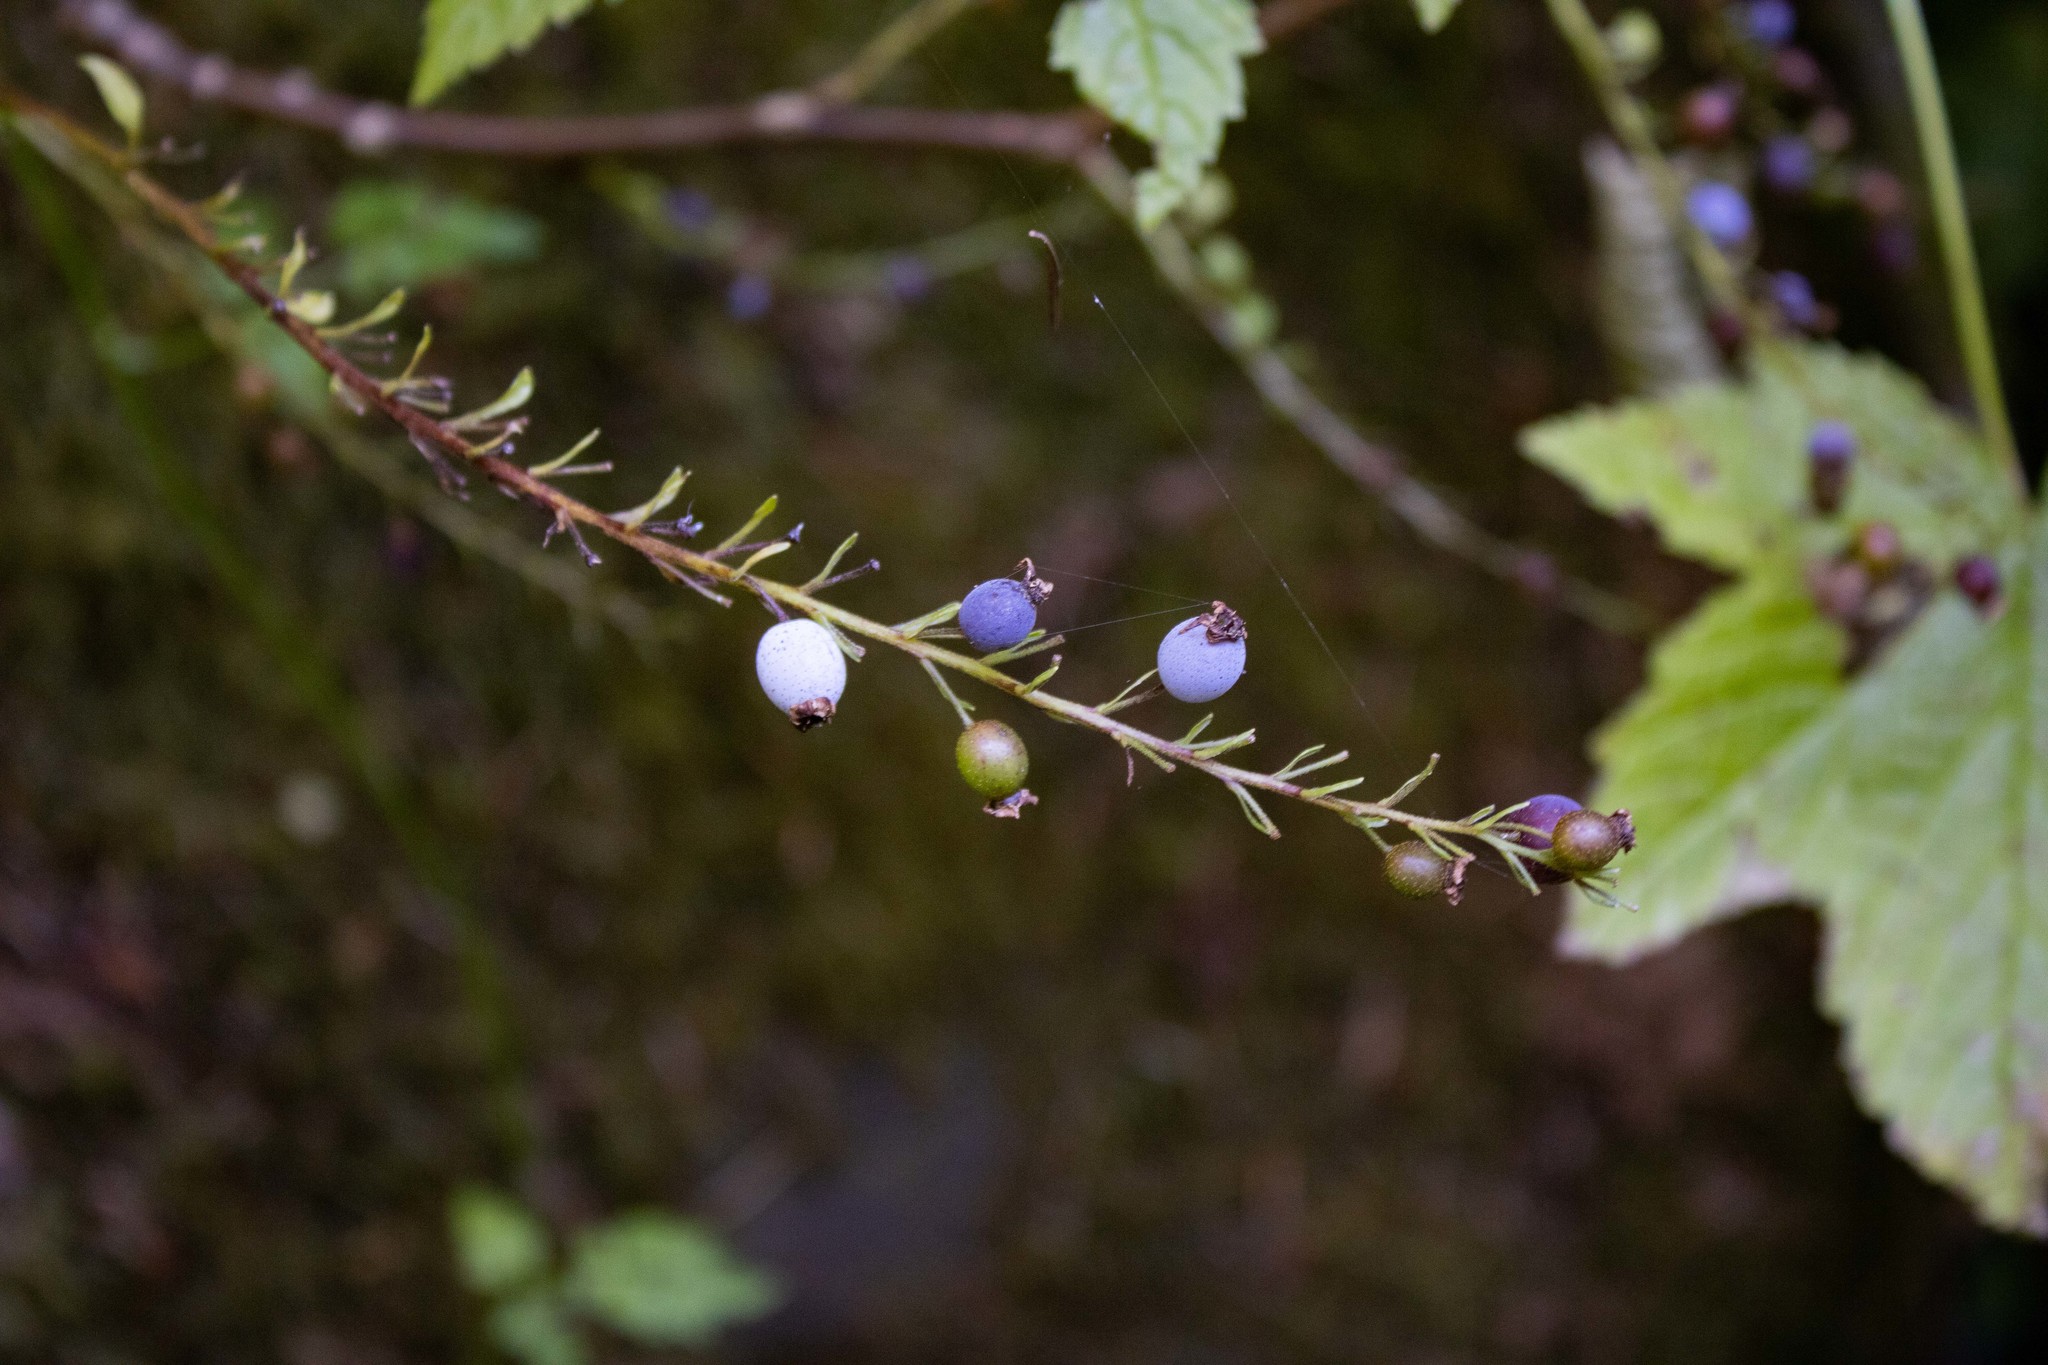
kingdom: Plantae
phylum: Tracheophyta
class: Magnoliopsida
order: Saxifragales
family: Grossulariaceae
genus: Ribes
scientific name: Ribes bracteosum
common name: California black currant
